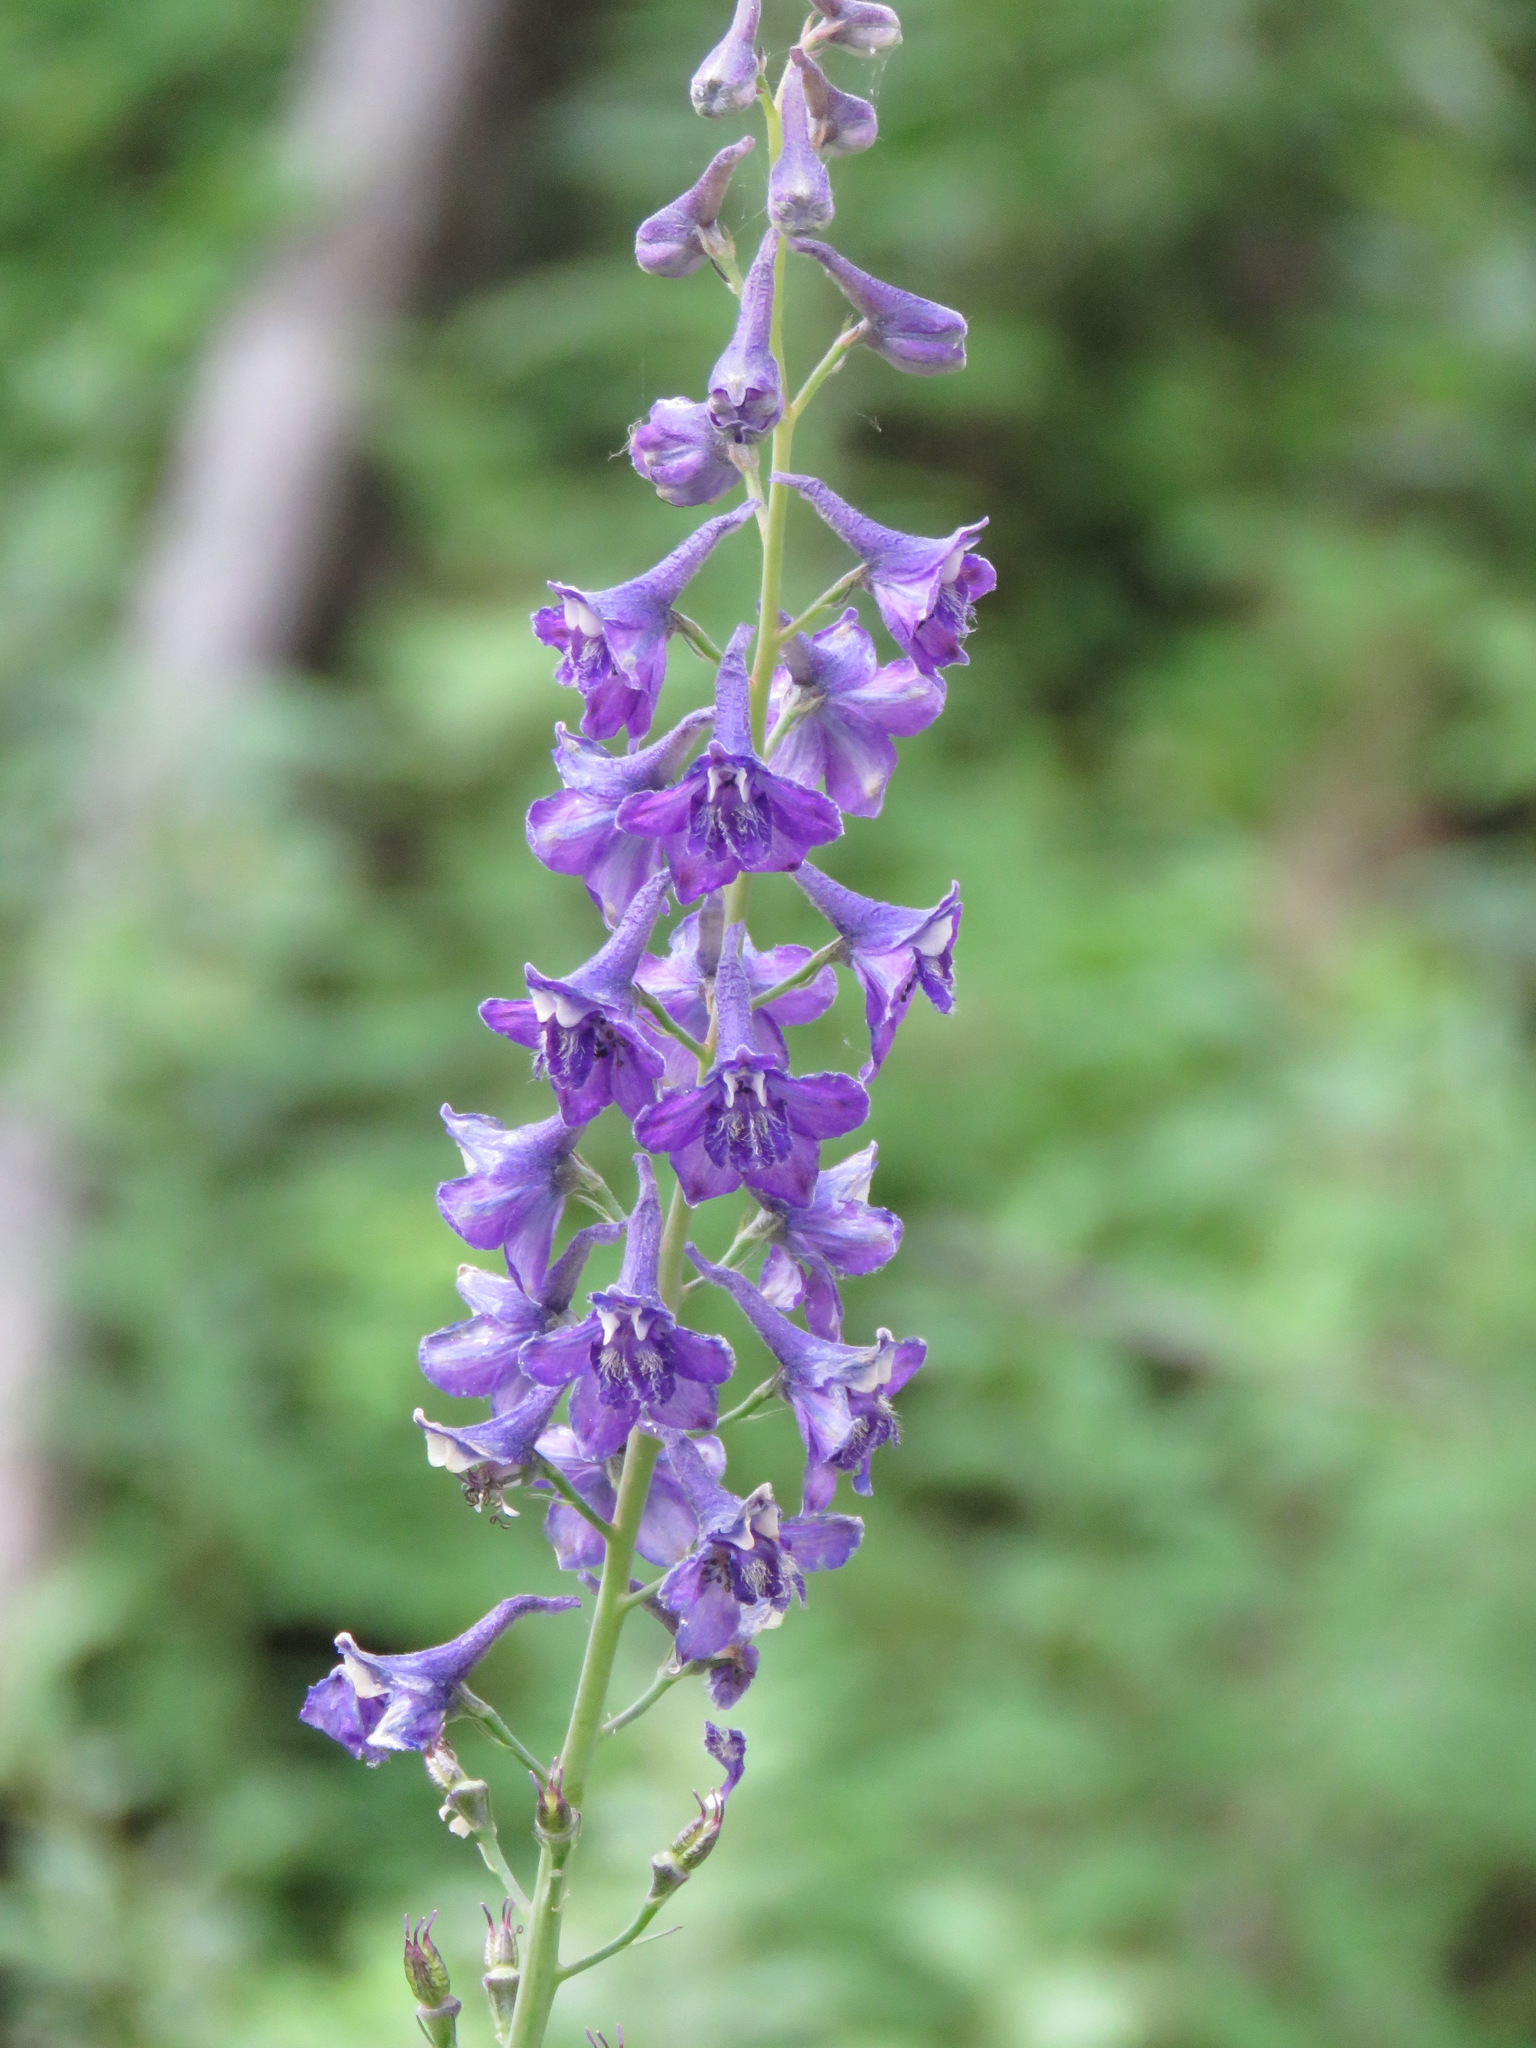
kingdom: Plantae
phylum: Tracheophyta
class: Magnoliopsida
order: Ranunculales
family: Ranunculaceae
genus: Delphinium
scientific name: Delphinium glaucum
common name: Brown's larkspur
